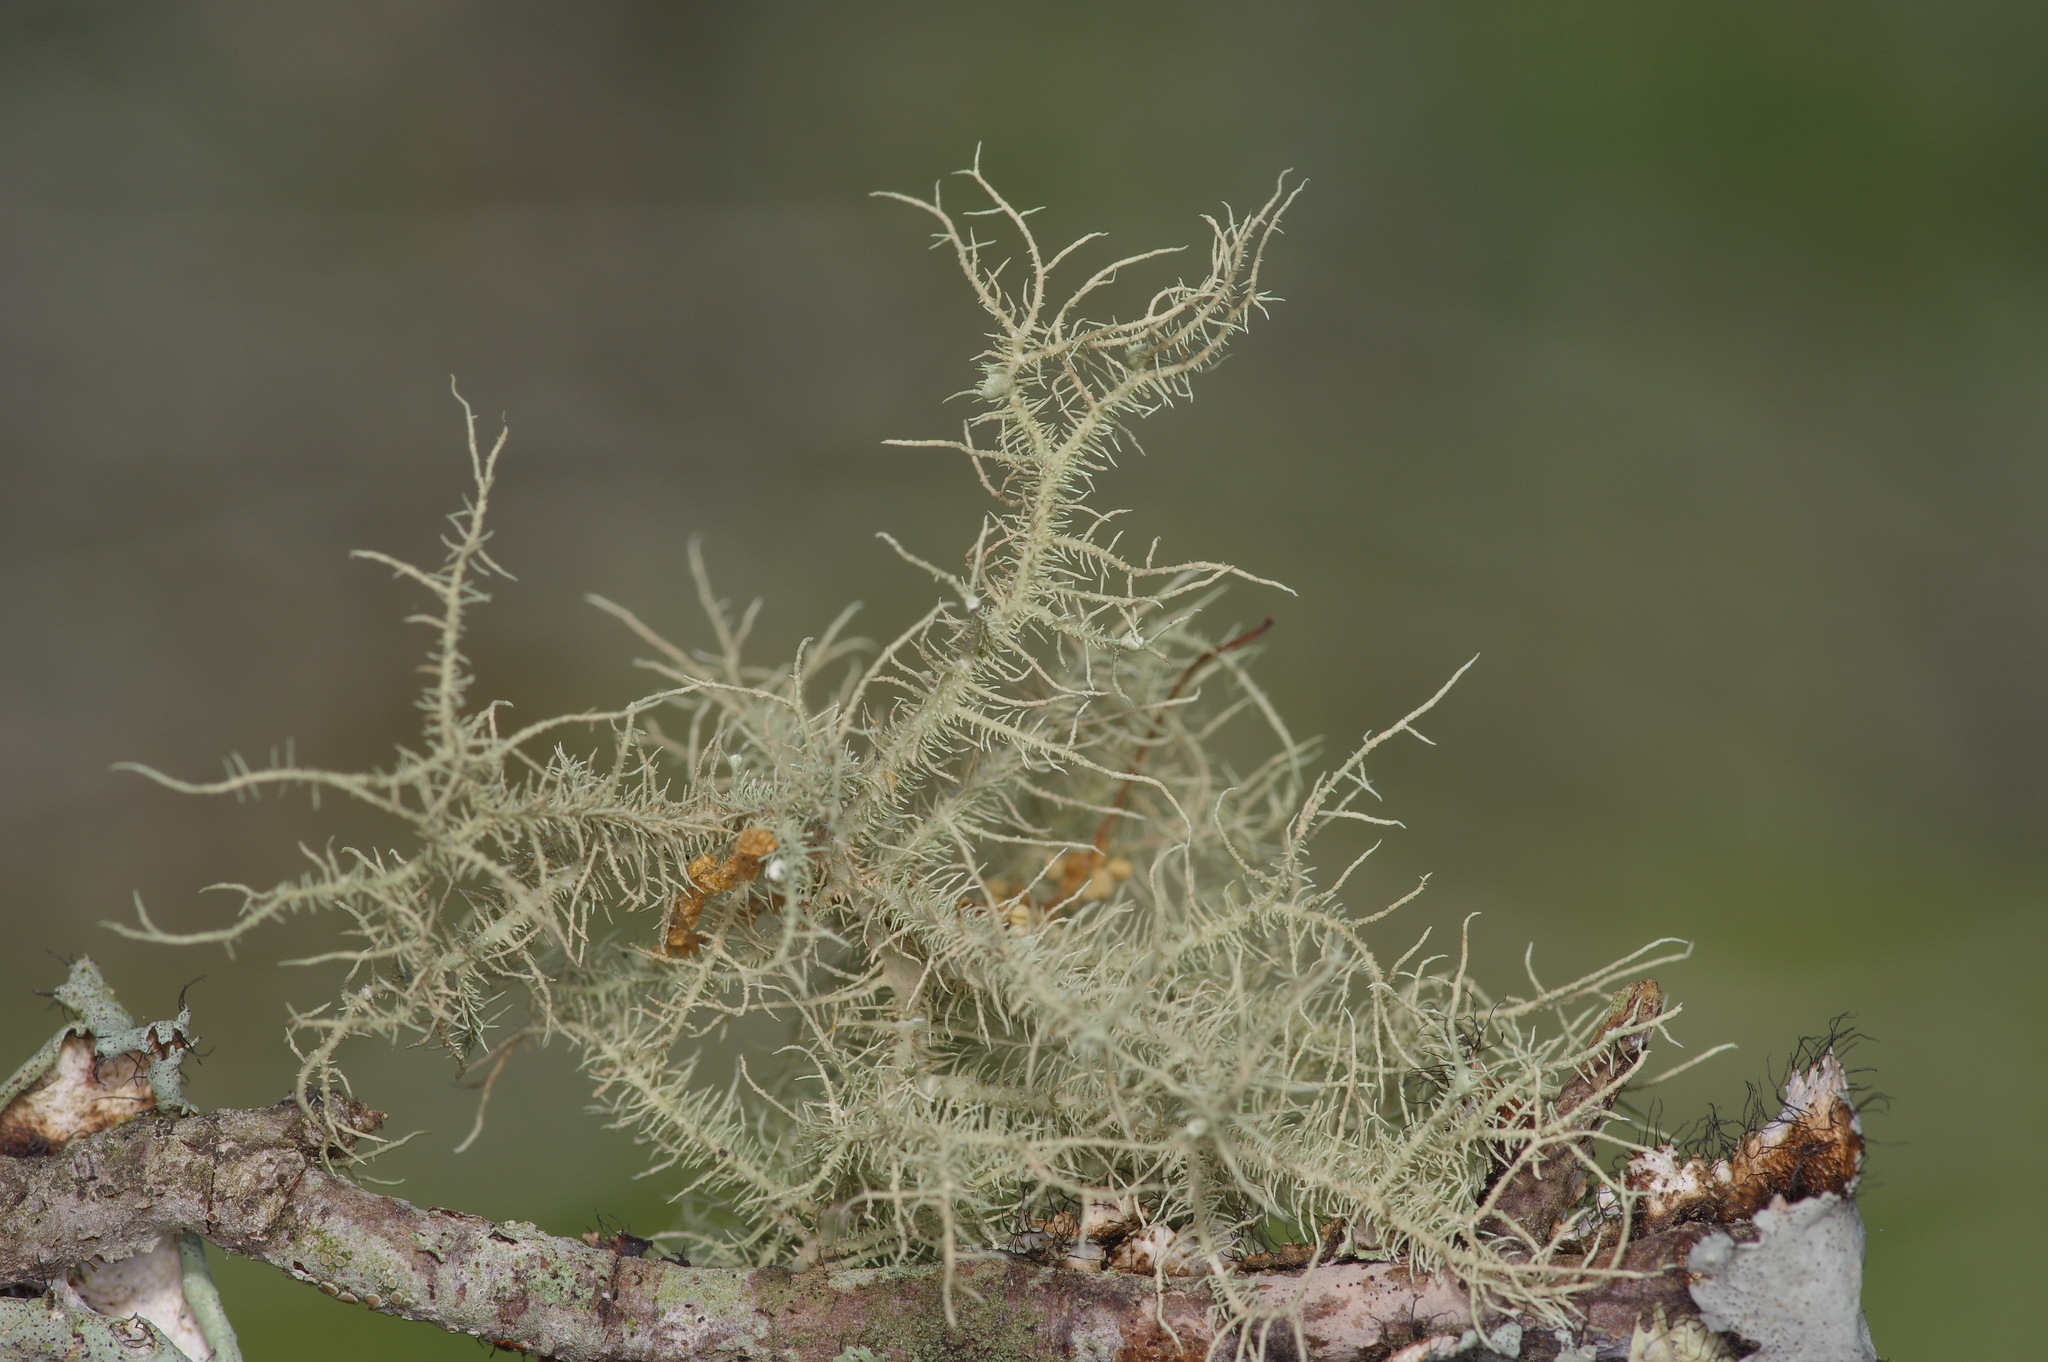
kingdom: Fungi
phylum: Ascomycota
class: Lecanoromycetes
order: Lecanorales
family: Parmeliaceae
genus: Usnea
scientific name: Usnea strigosa
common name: Bushy beard lichen
